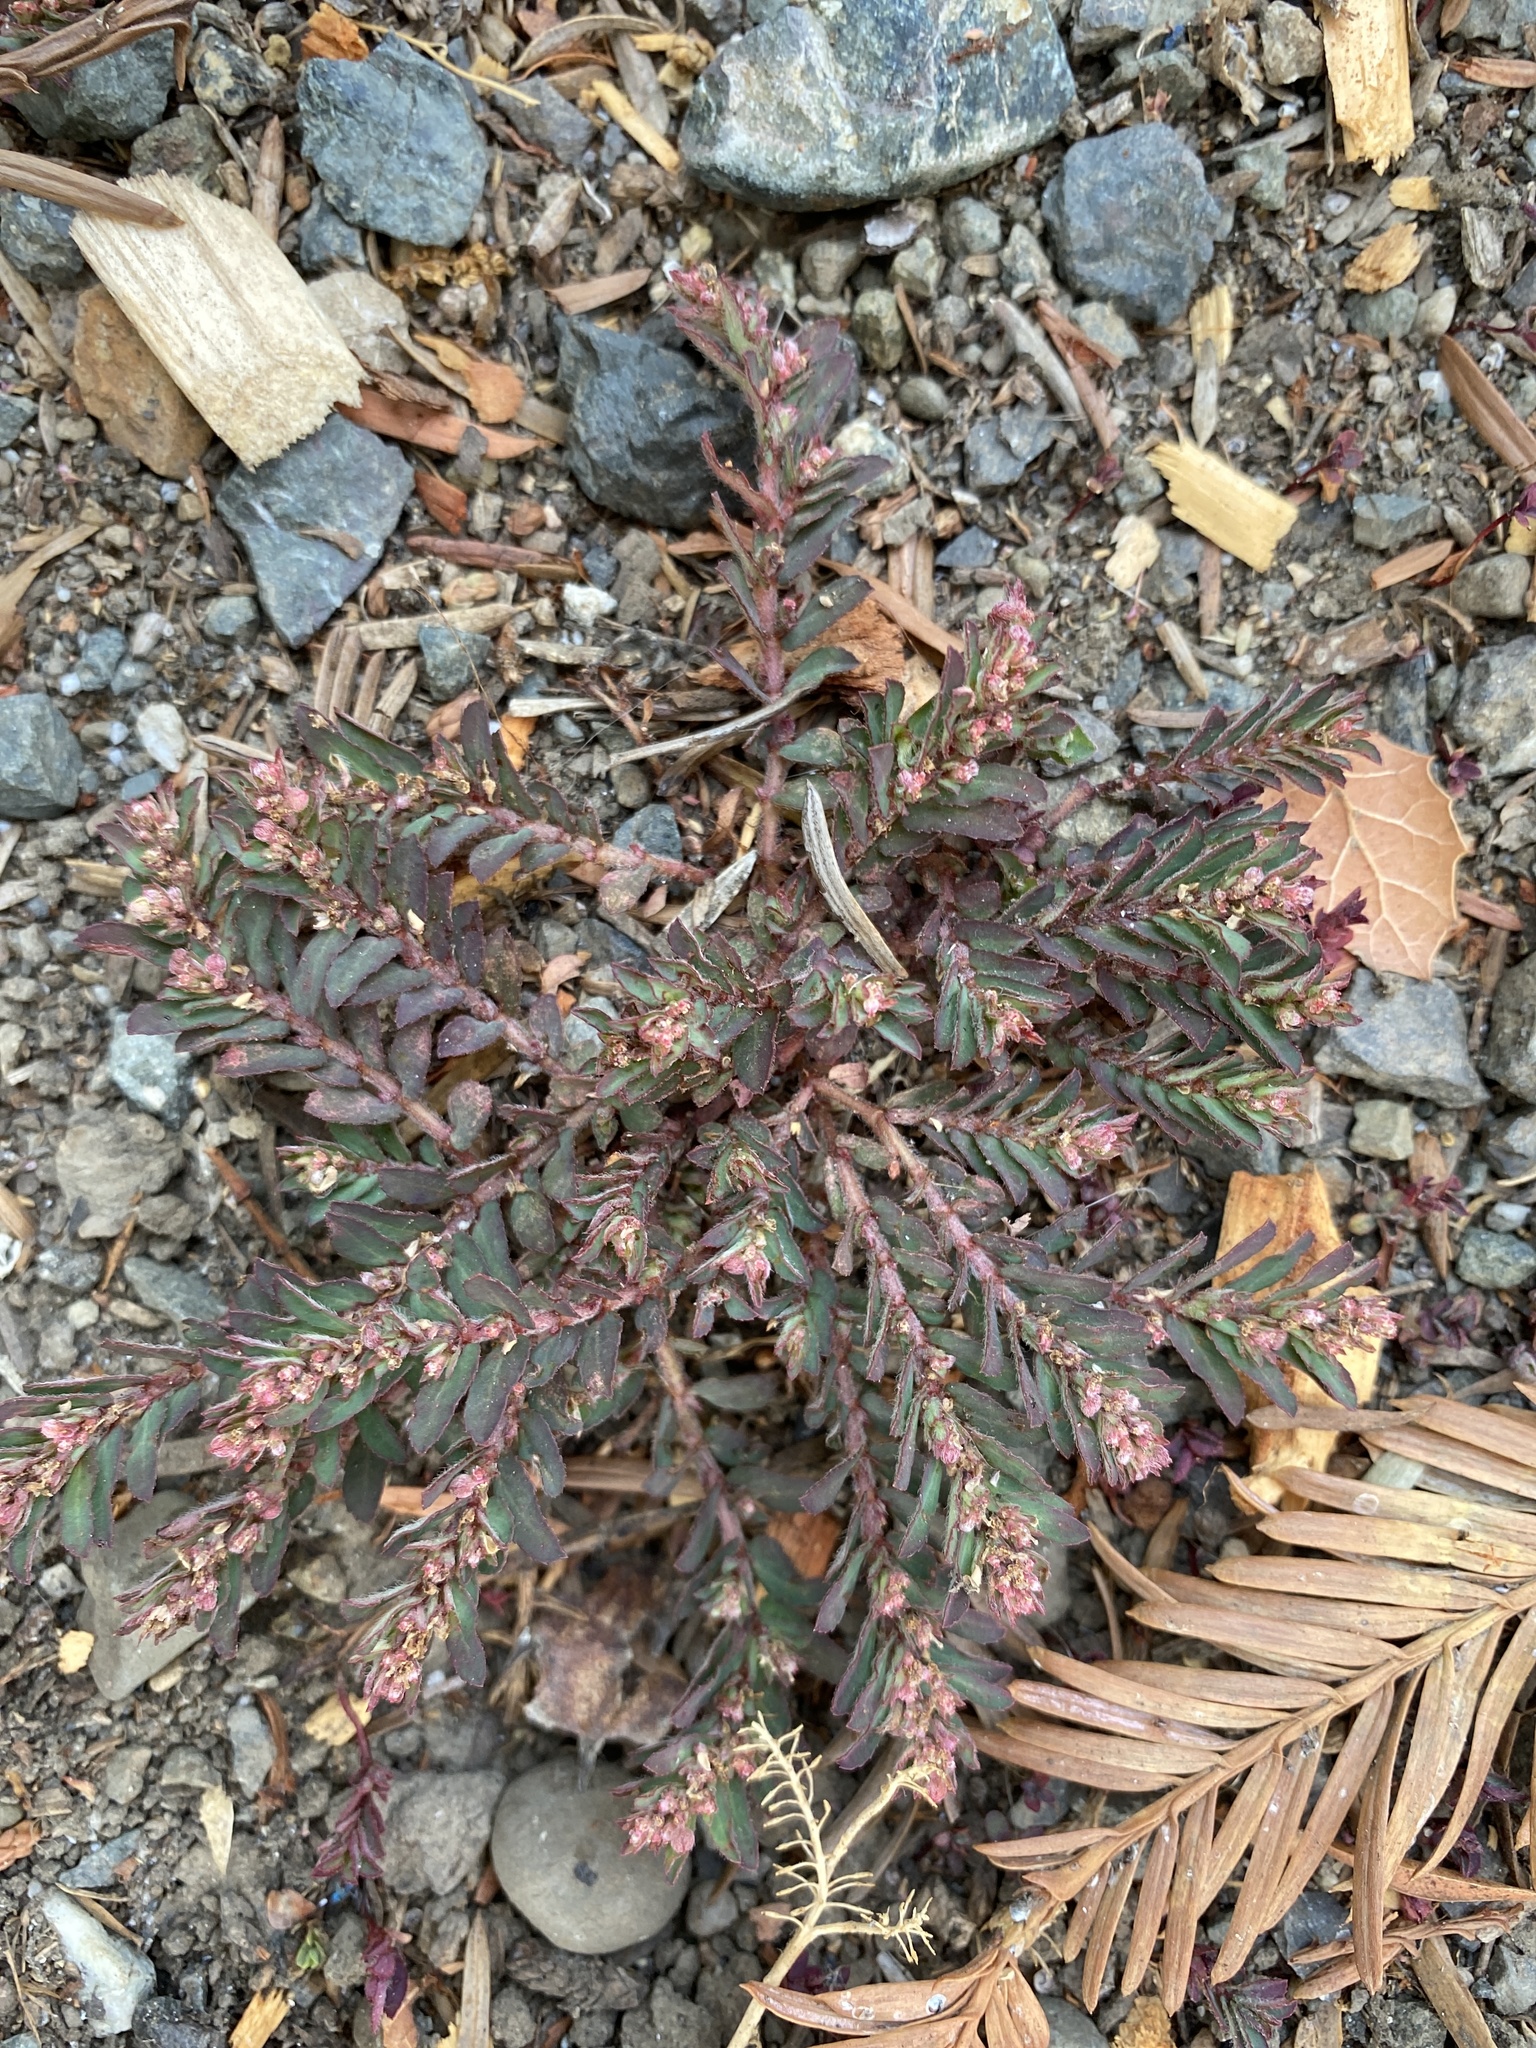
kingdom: Plantae
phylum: Tracheophyta
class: Magnoliopsida
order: Malpighiales
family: Euphorbiaceae
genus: Euphorbia
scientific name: Euphorbia maculata
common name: Spotted spurge
